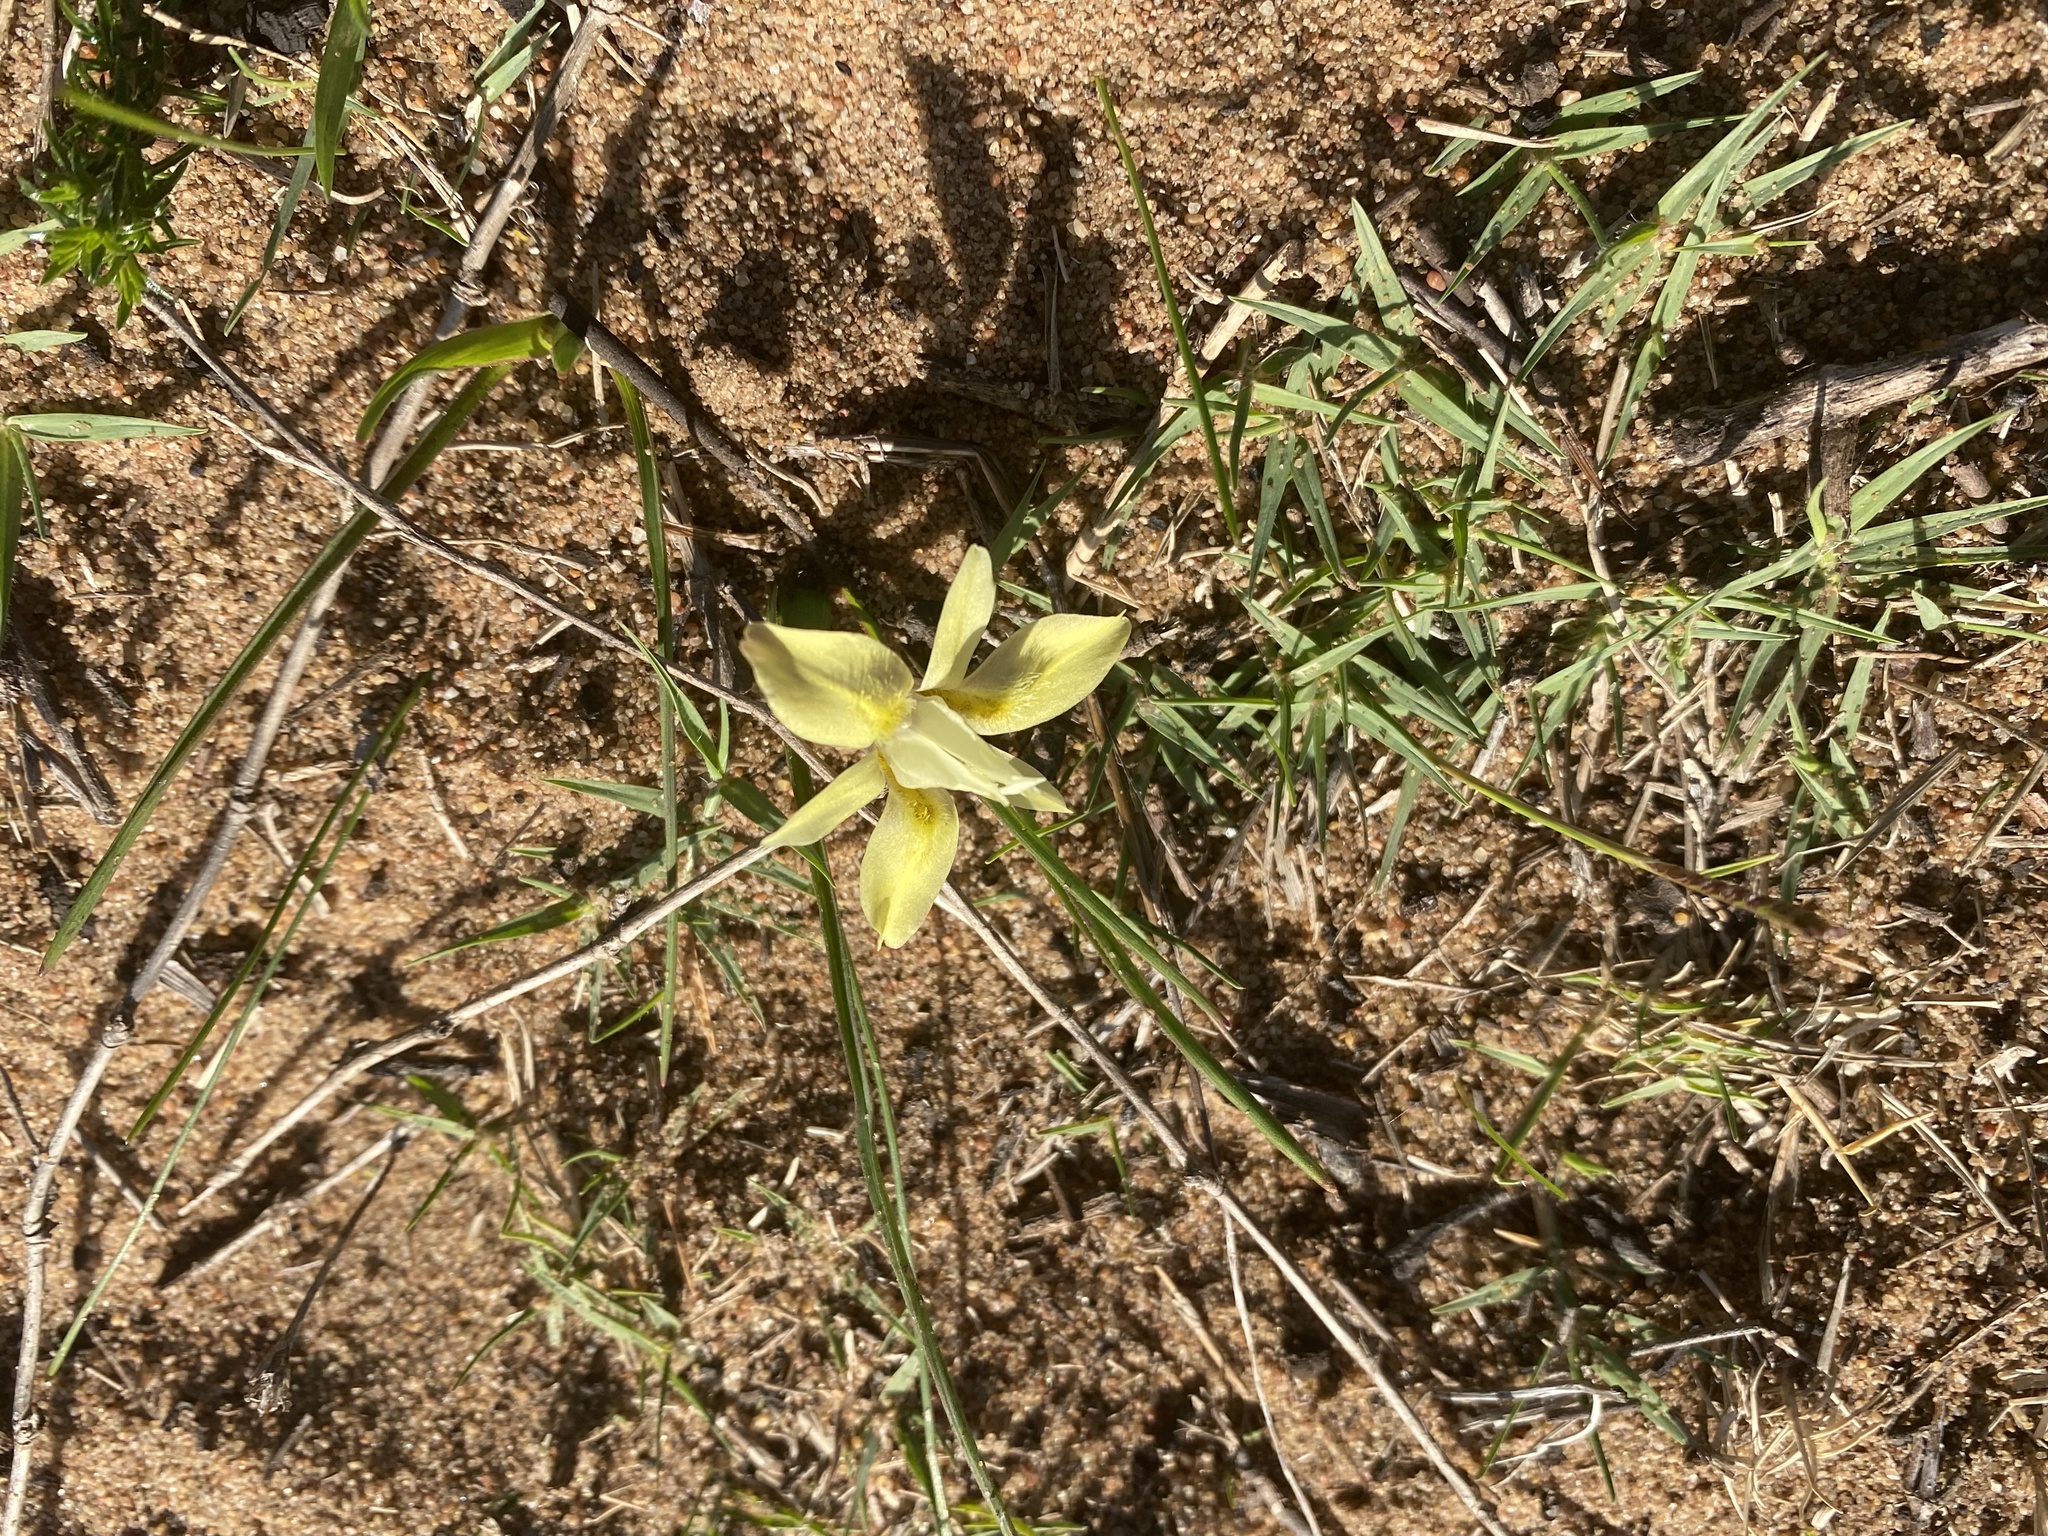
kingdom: Plantae
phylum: Tracheophyta
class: Liliopsida
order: Asparagales
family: Iridaceae
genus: Moraea
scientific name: Moraea tricolor
